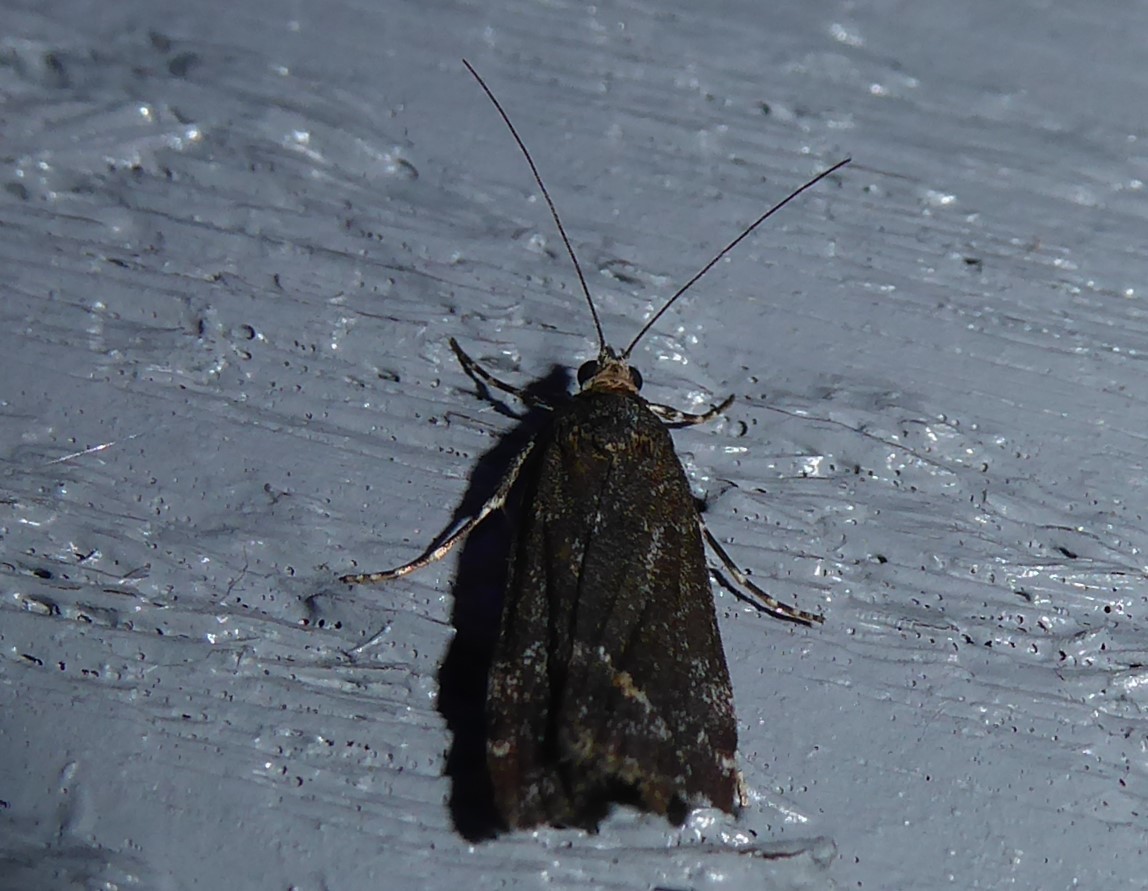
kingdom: Animalia
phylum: Arthropoda
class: Insecta
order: Lepidoptera
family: Crambidae
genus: Eudonia
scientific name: Eudonia submarginalis
